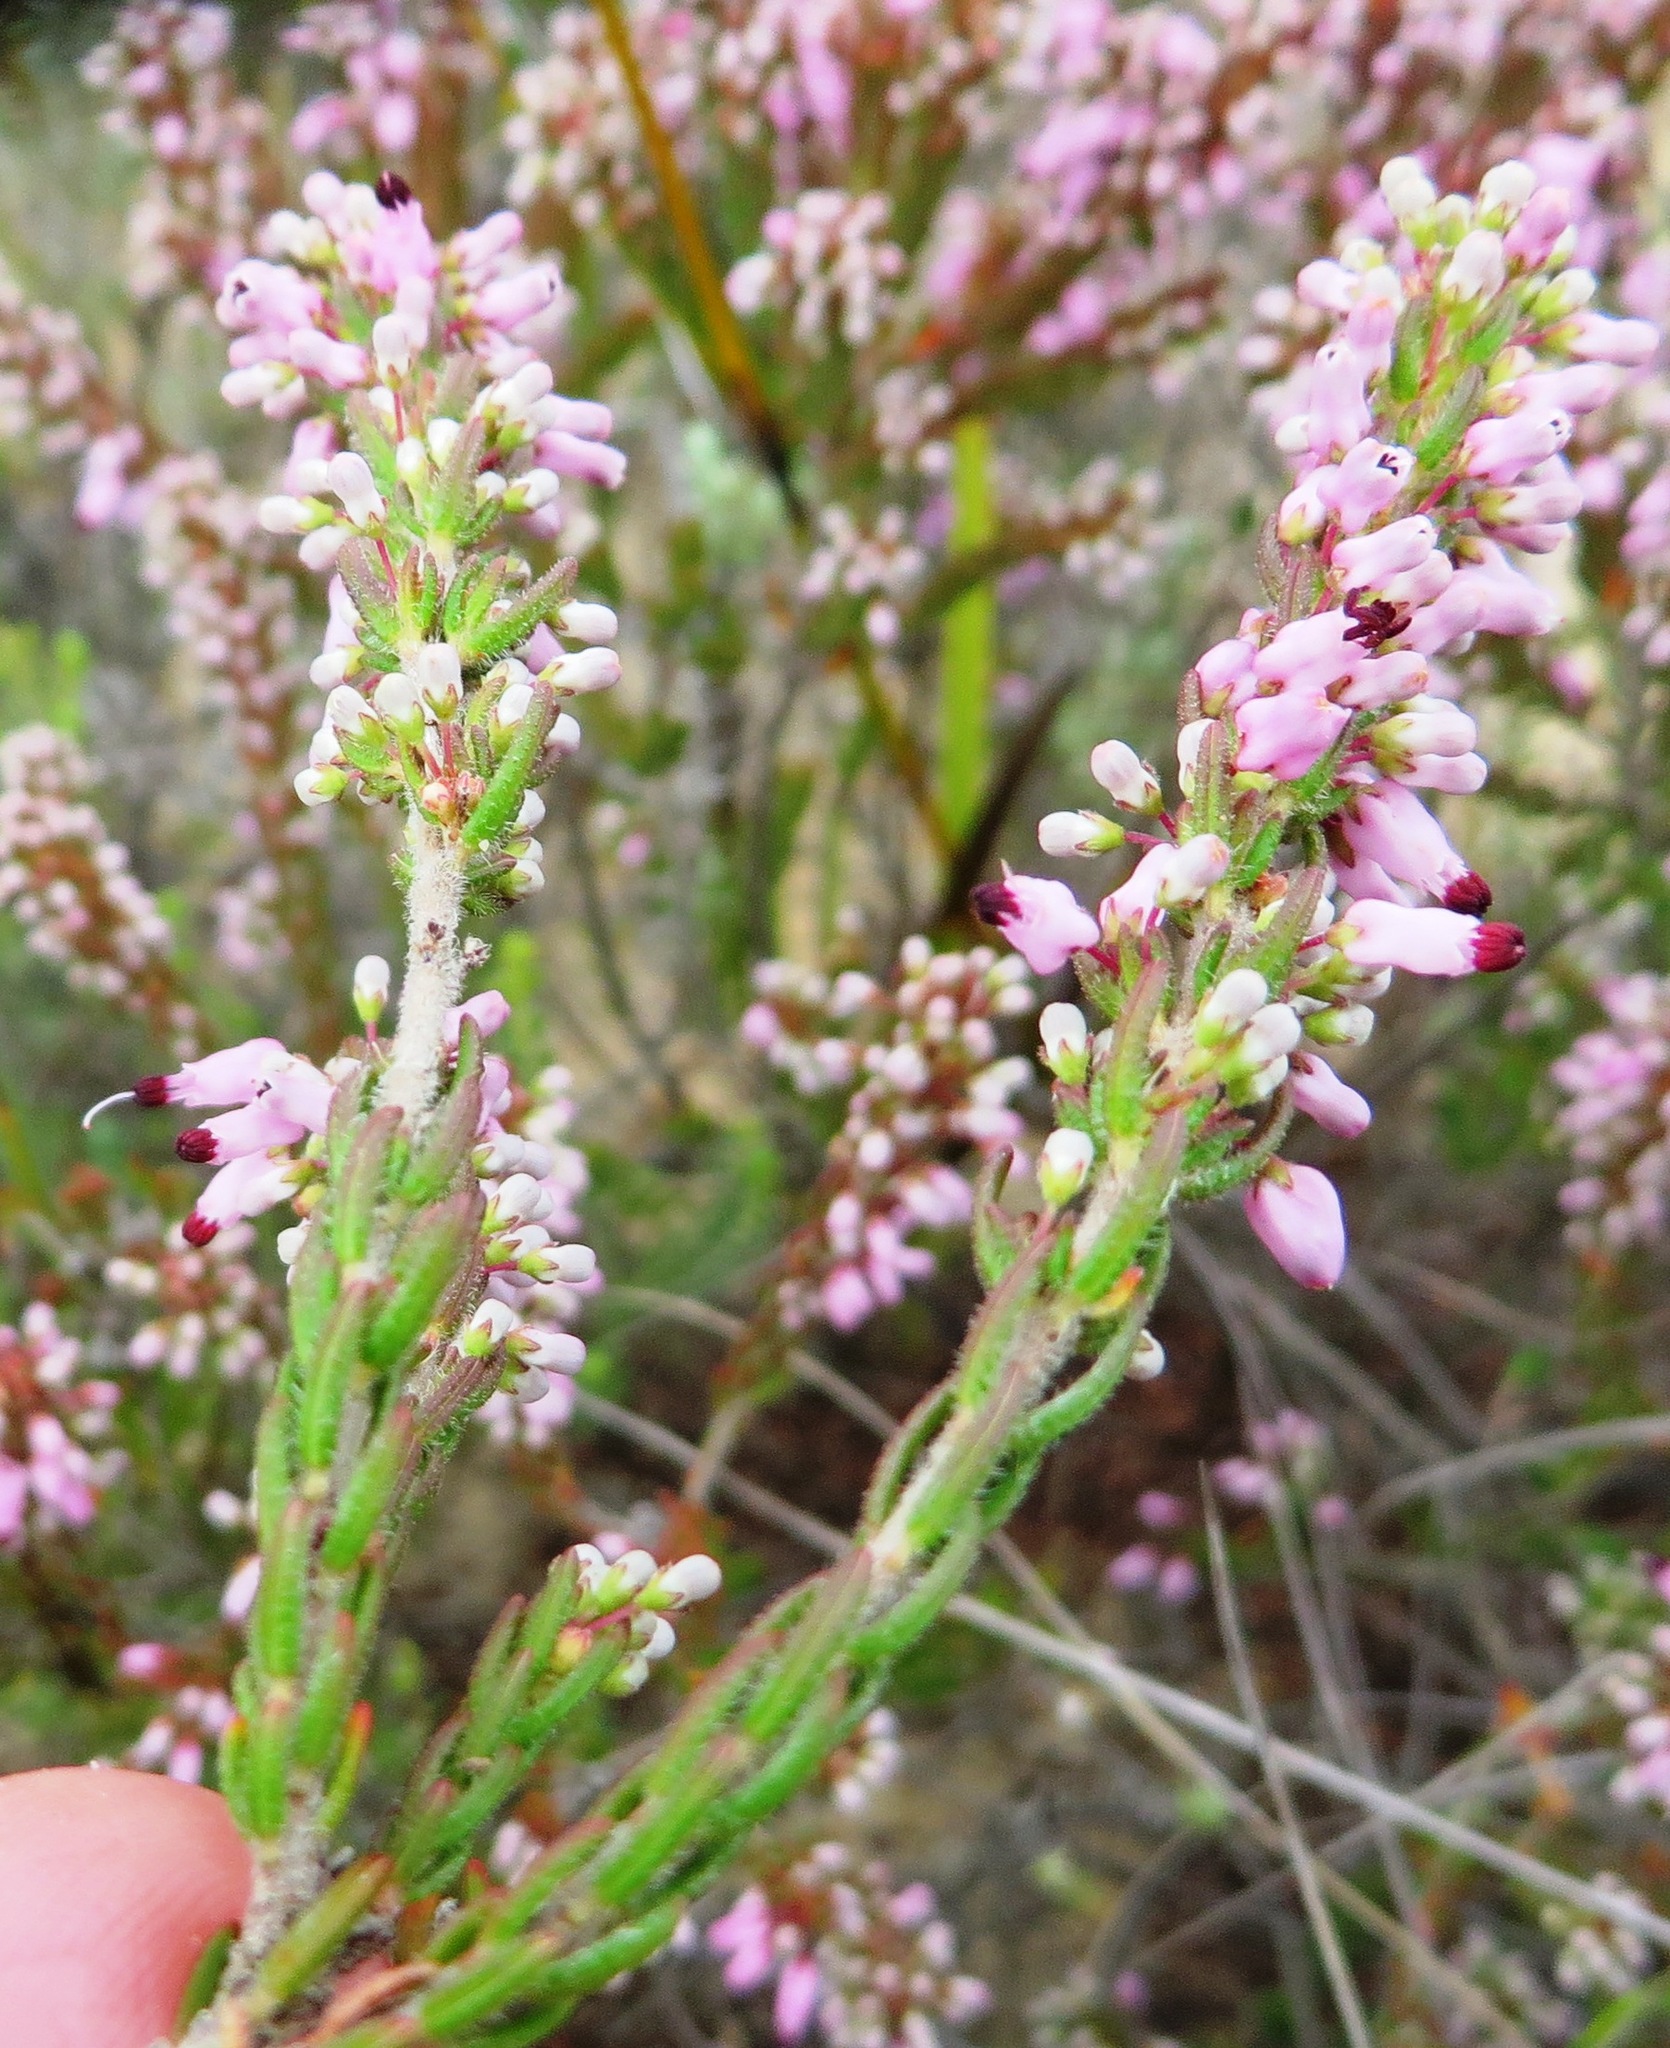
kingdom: Plantae
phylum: Tracheophyta
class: Magnoliopsida
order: Ericales
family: Ericaceae
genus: Erica
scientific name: Erica nudiflora
